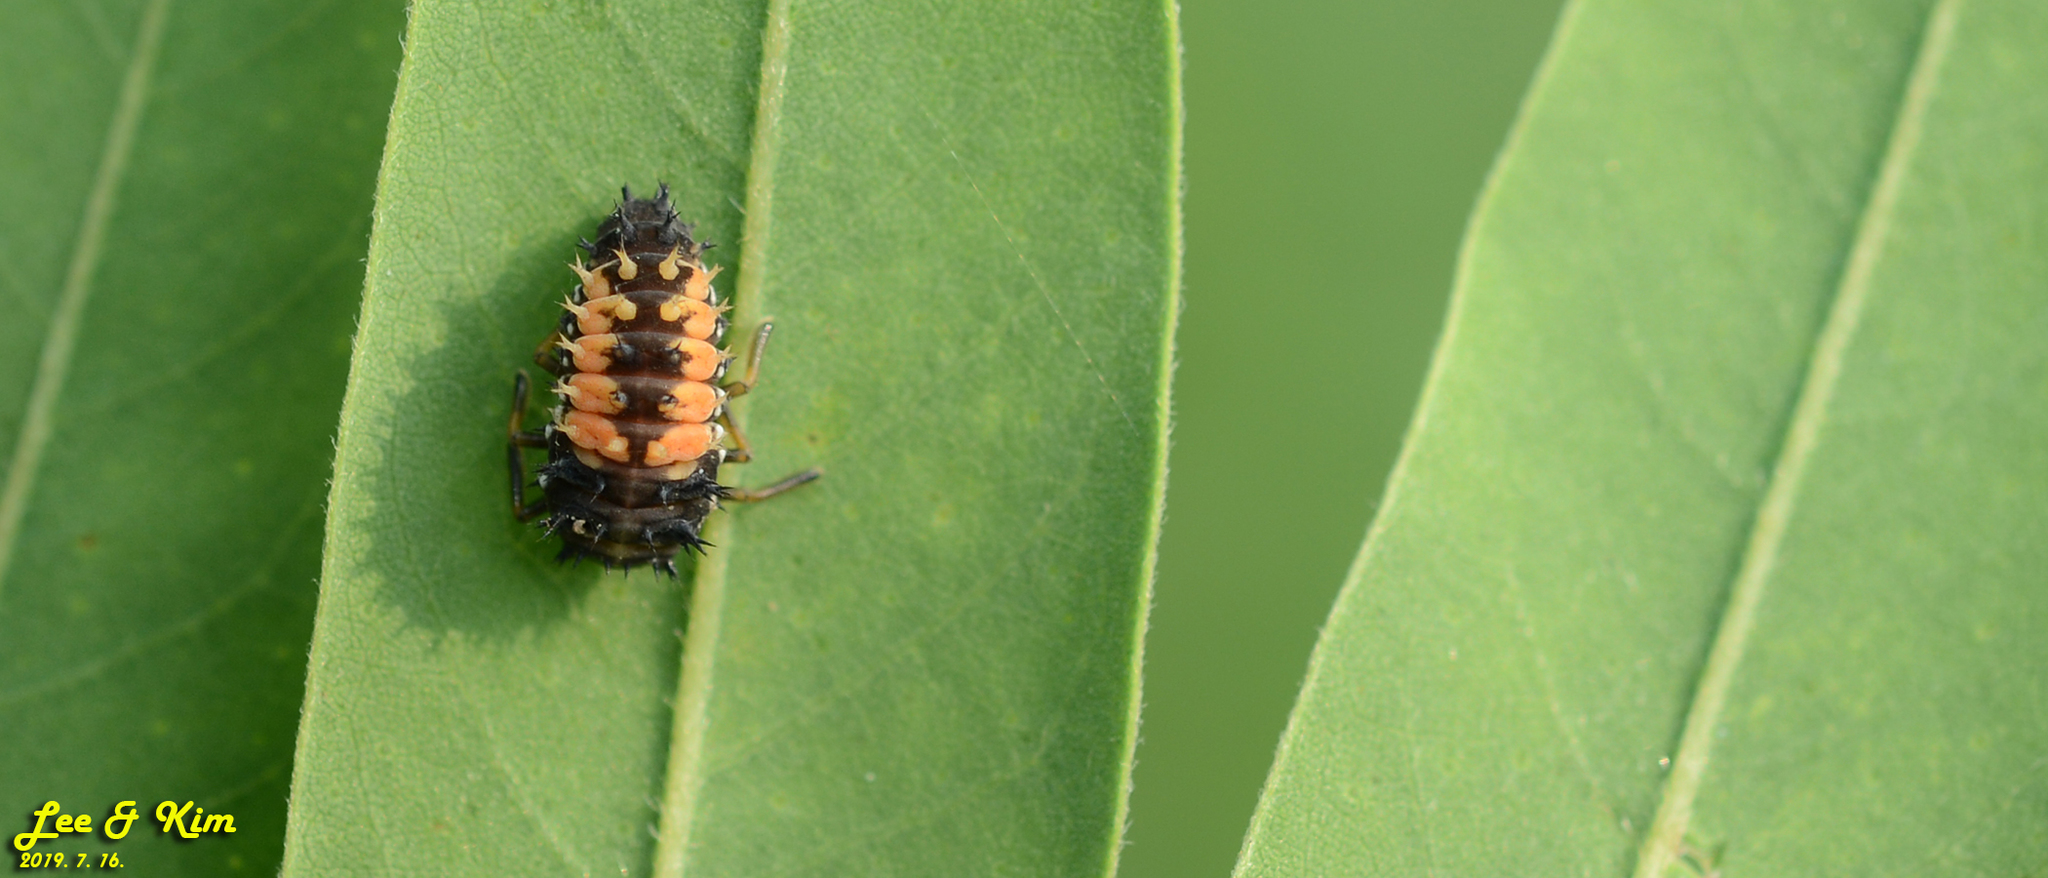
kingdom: Animalia
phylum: Arthropoda
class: Insecta
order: Coleoptera
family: Coccinellidae
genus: Harmonia
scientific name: Harmonia axyridis
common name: Harlequin ladybird
